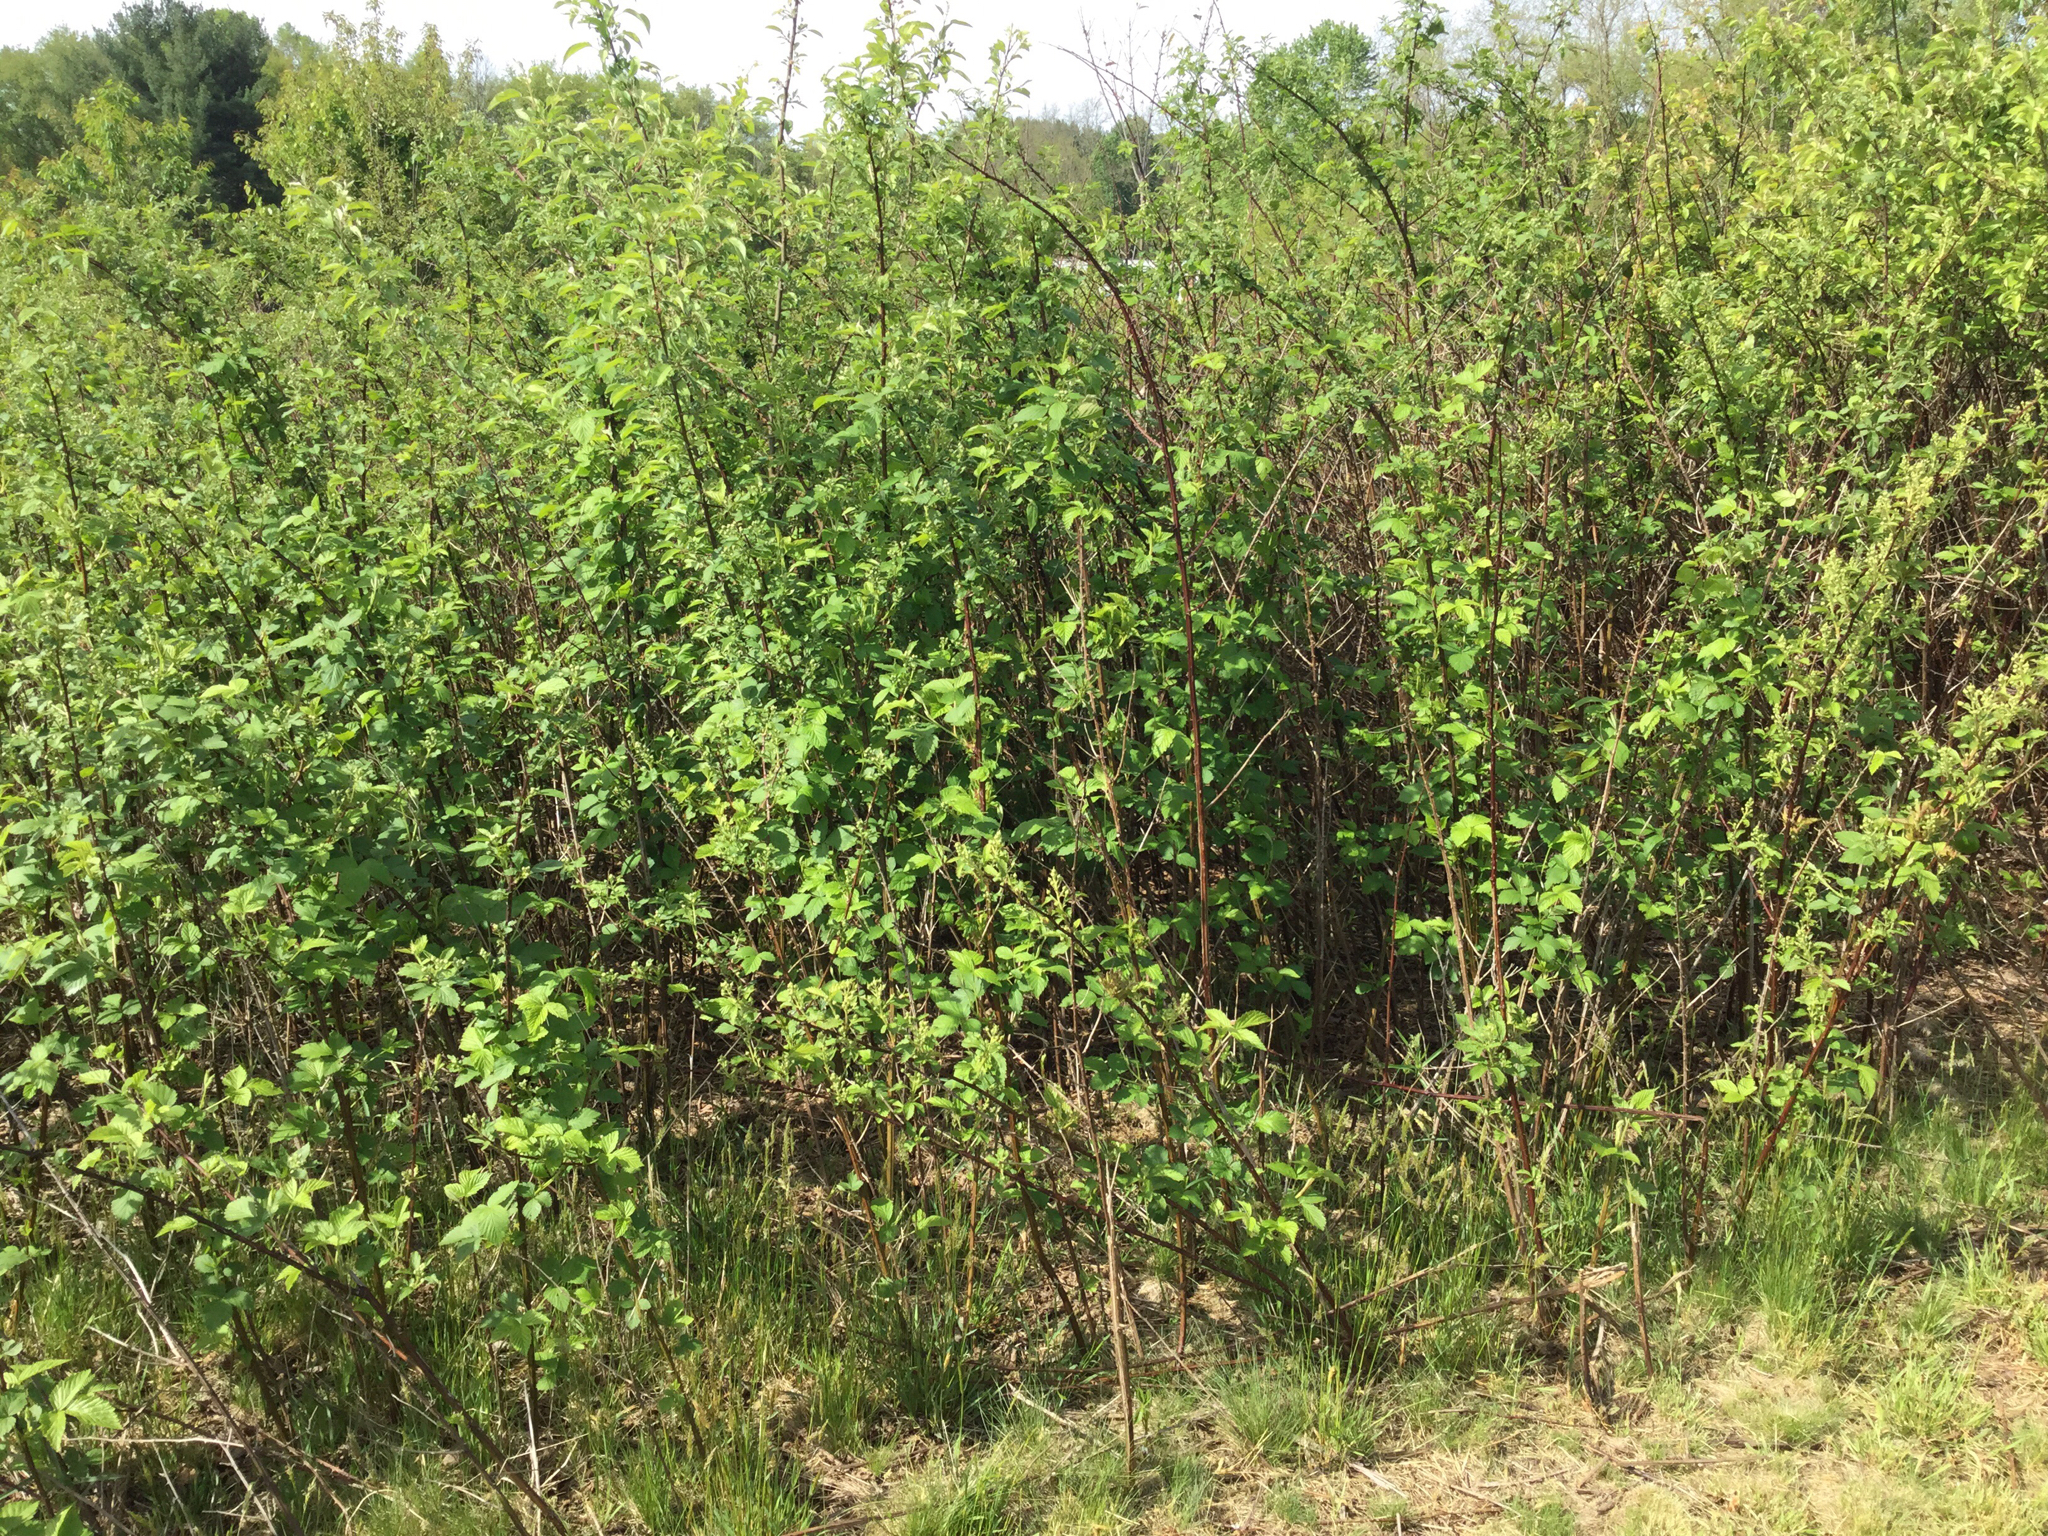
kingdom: Plantae
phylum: Tracheophyta
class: Magnoliopsida
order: Rosales
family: Rosaceae
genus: Rubus
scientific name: Rubus allegheniensis
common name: Allegheny blackberry
